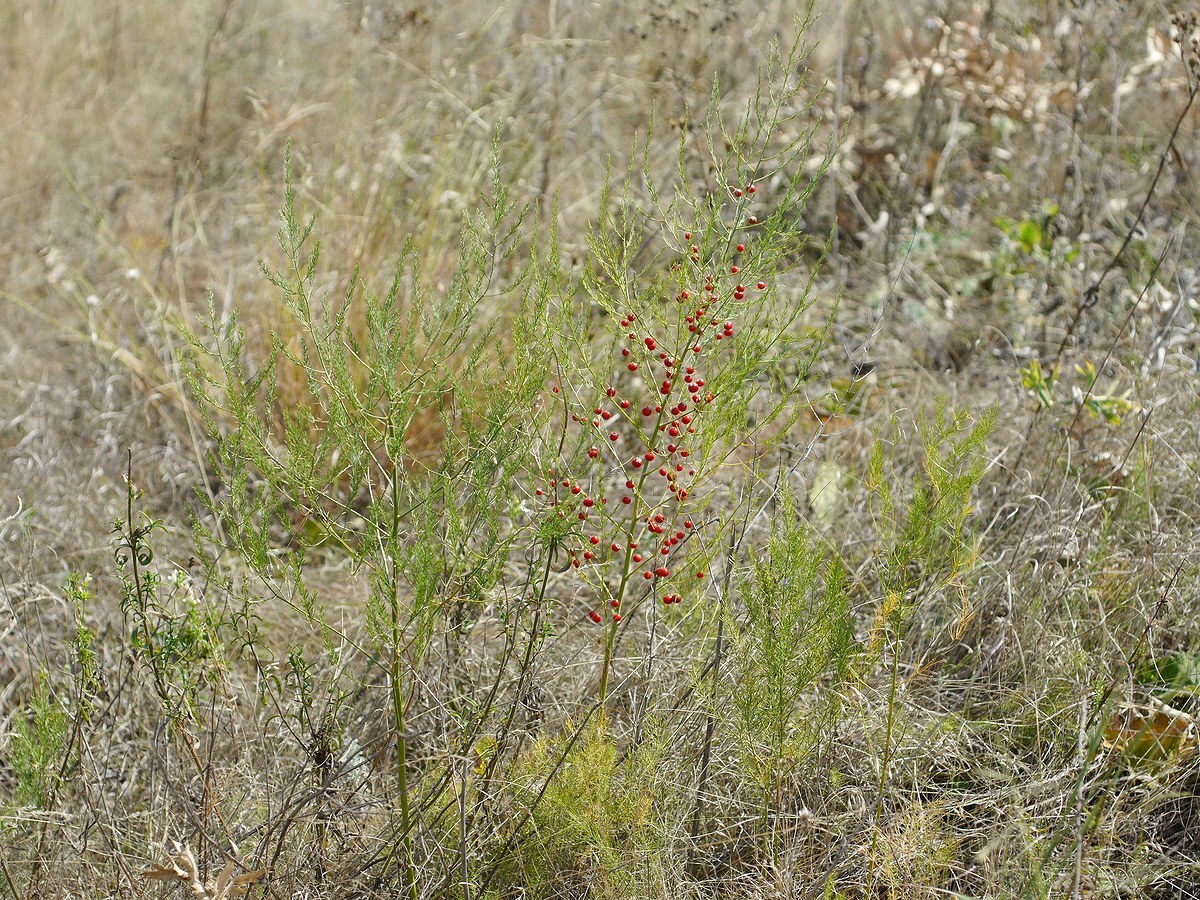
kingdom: Plantae
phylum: Tracheophyta
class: Liliopsida
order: Asparagales
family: Asparagaceae
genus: Asparagus
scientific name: Asparagus officinalis
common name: Garden asparagus
